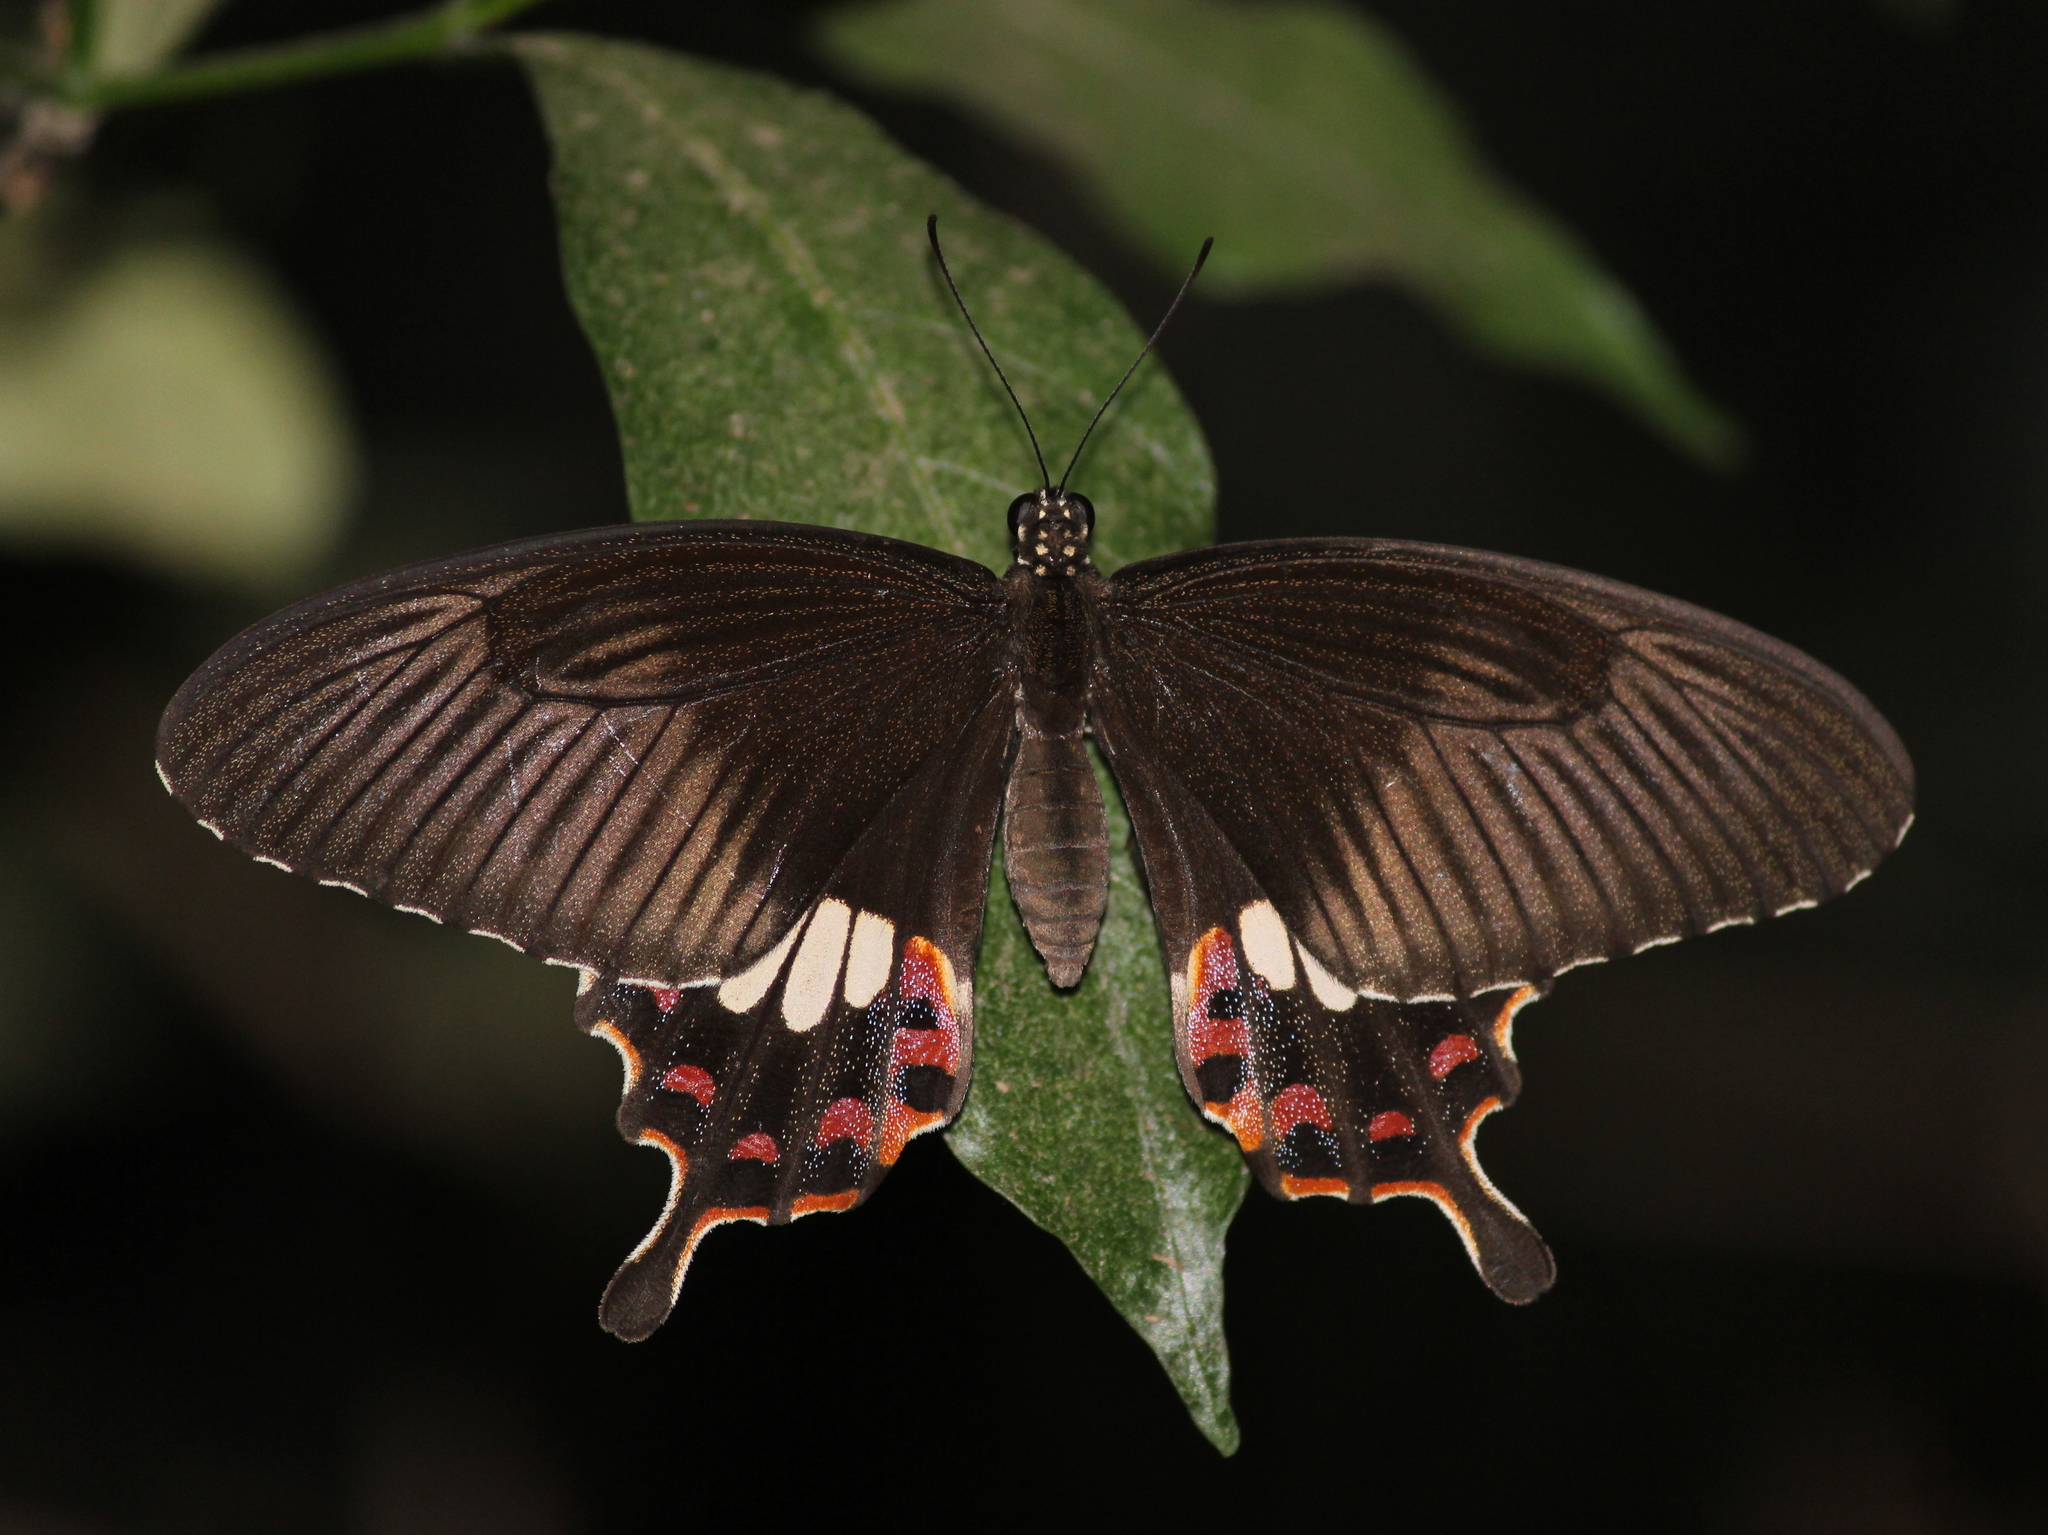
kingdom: Animalia
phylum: Arthropoda
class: Insecta
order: Lepidoptera
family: Papilionidae
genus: Papilio
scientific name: Papilio polytes
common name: Common mormon
